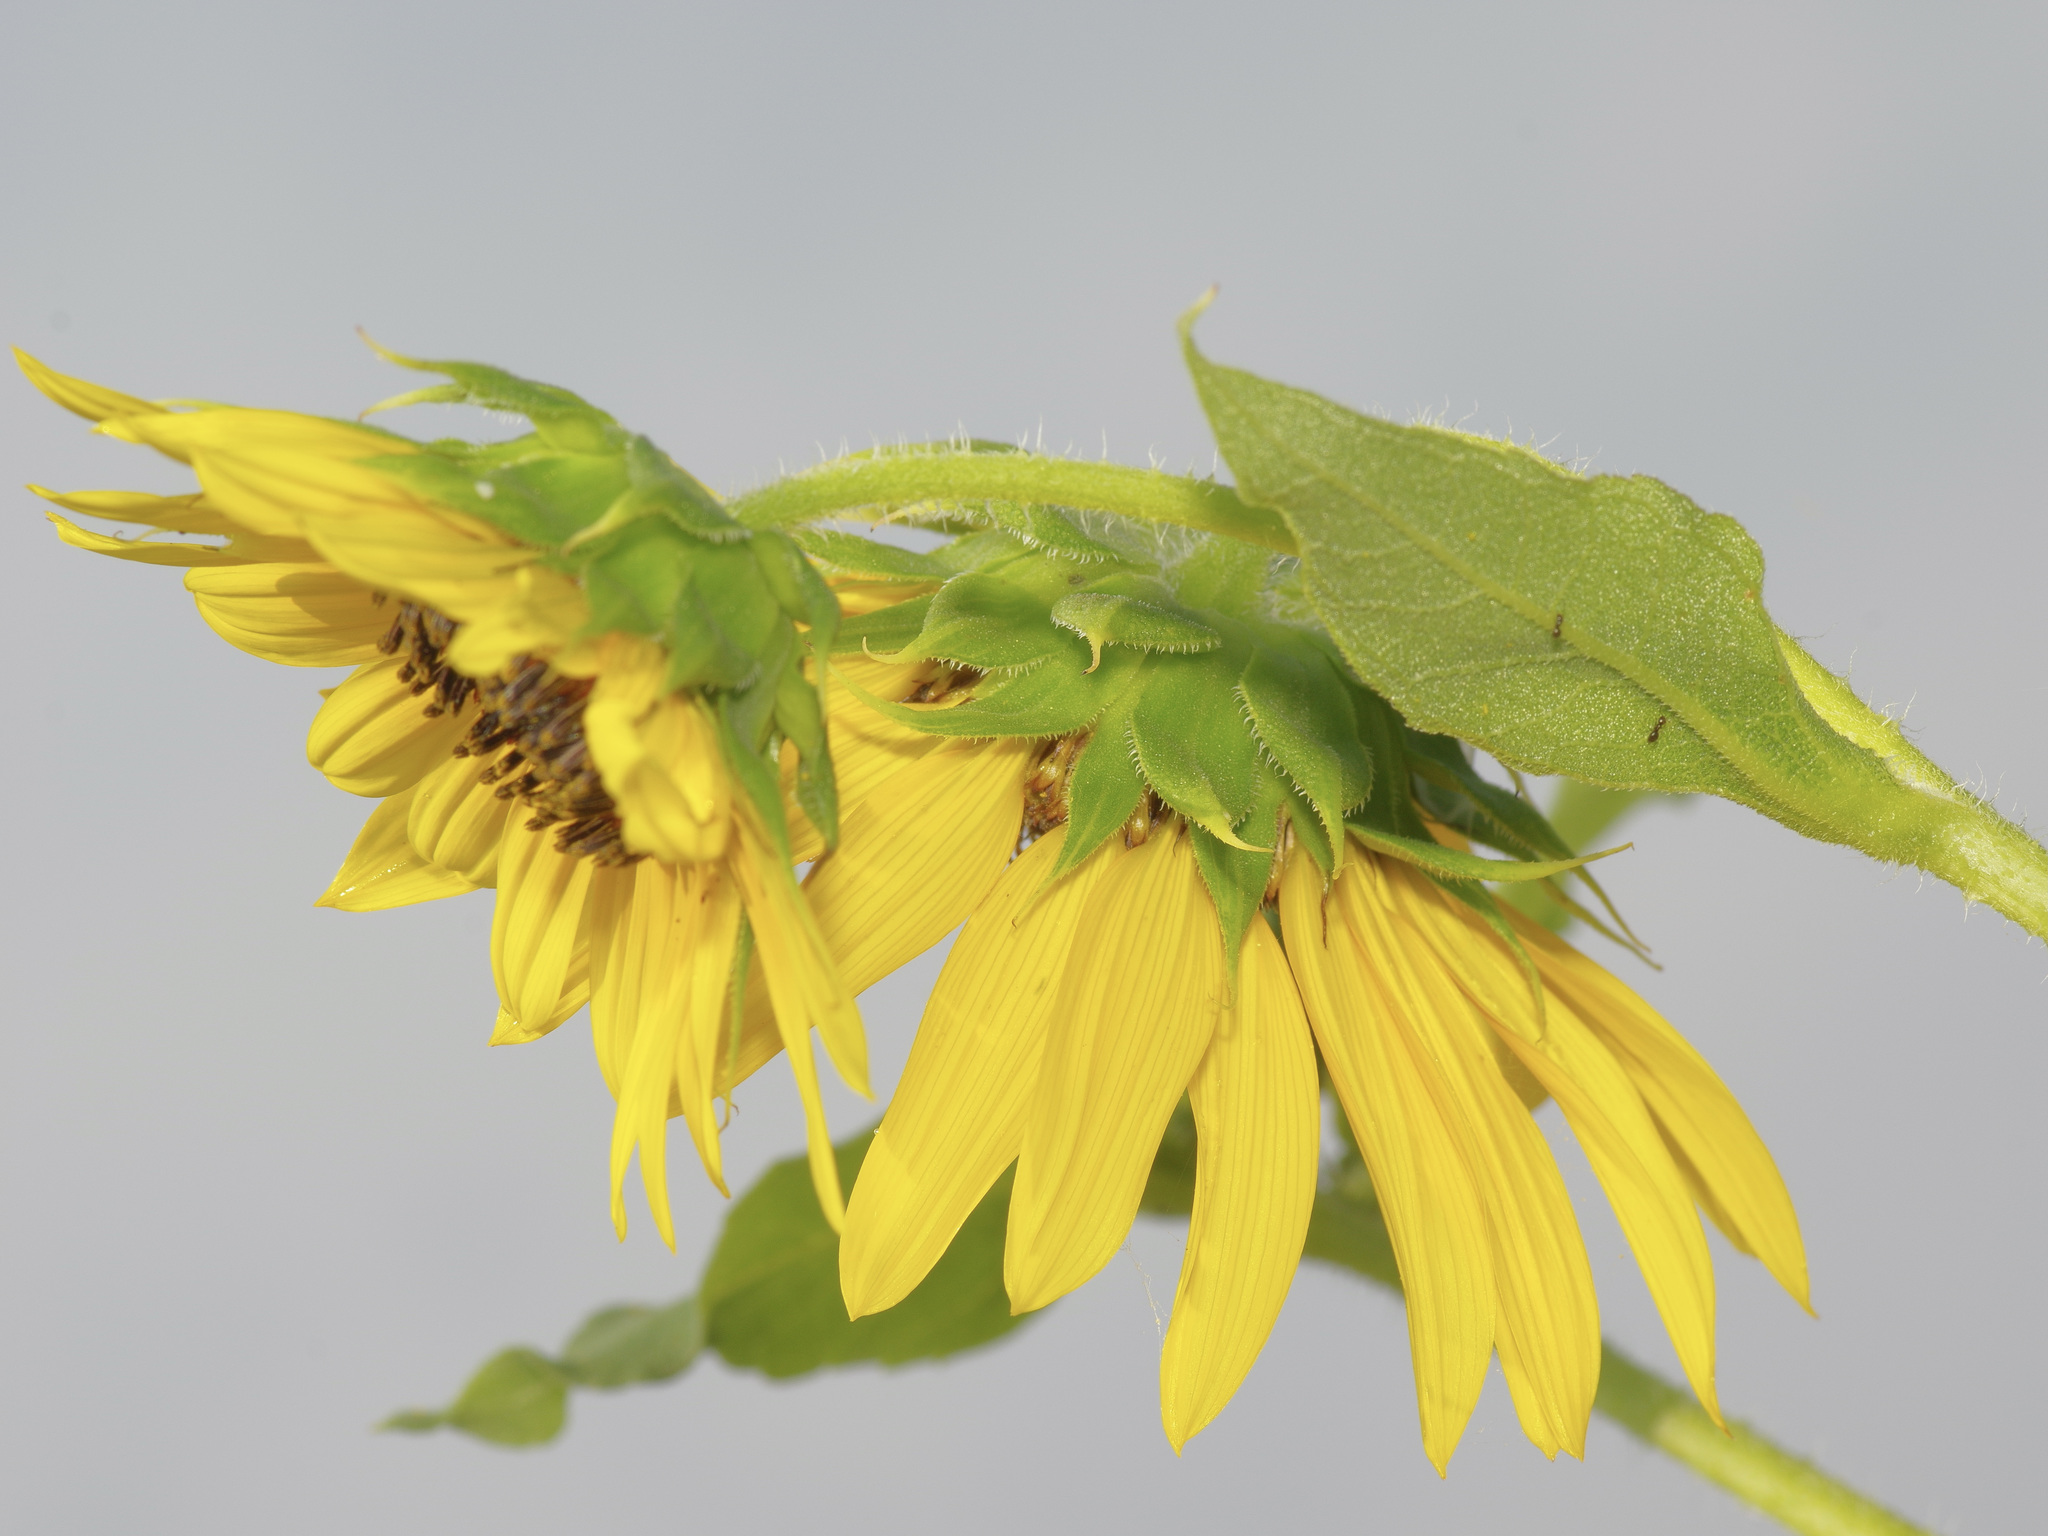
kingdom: Plantae
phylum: Tracheophyta
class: Magnoliopsida
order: Asterales
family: Asteraceae
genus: Helianthus
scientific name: Helianthus annuus
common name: Sunflower
